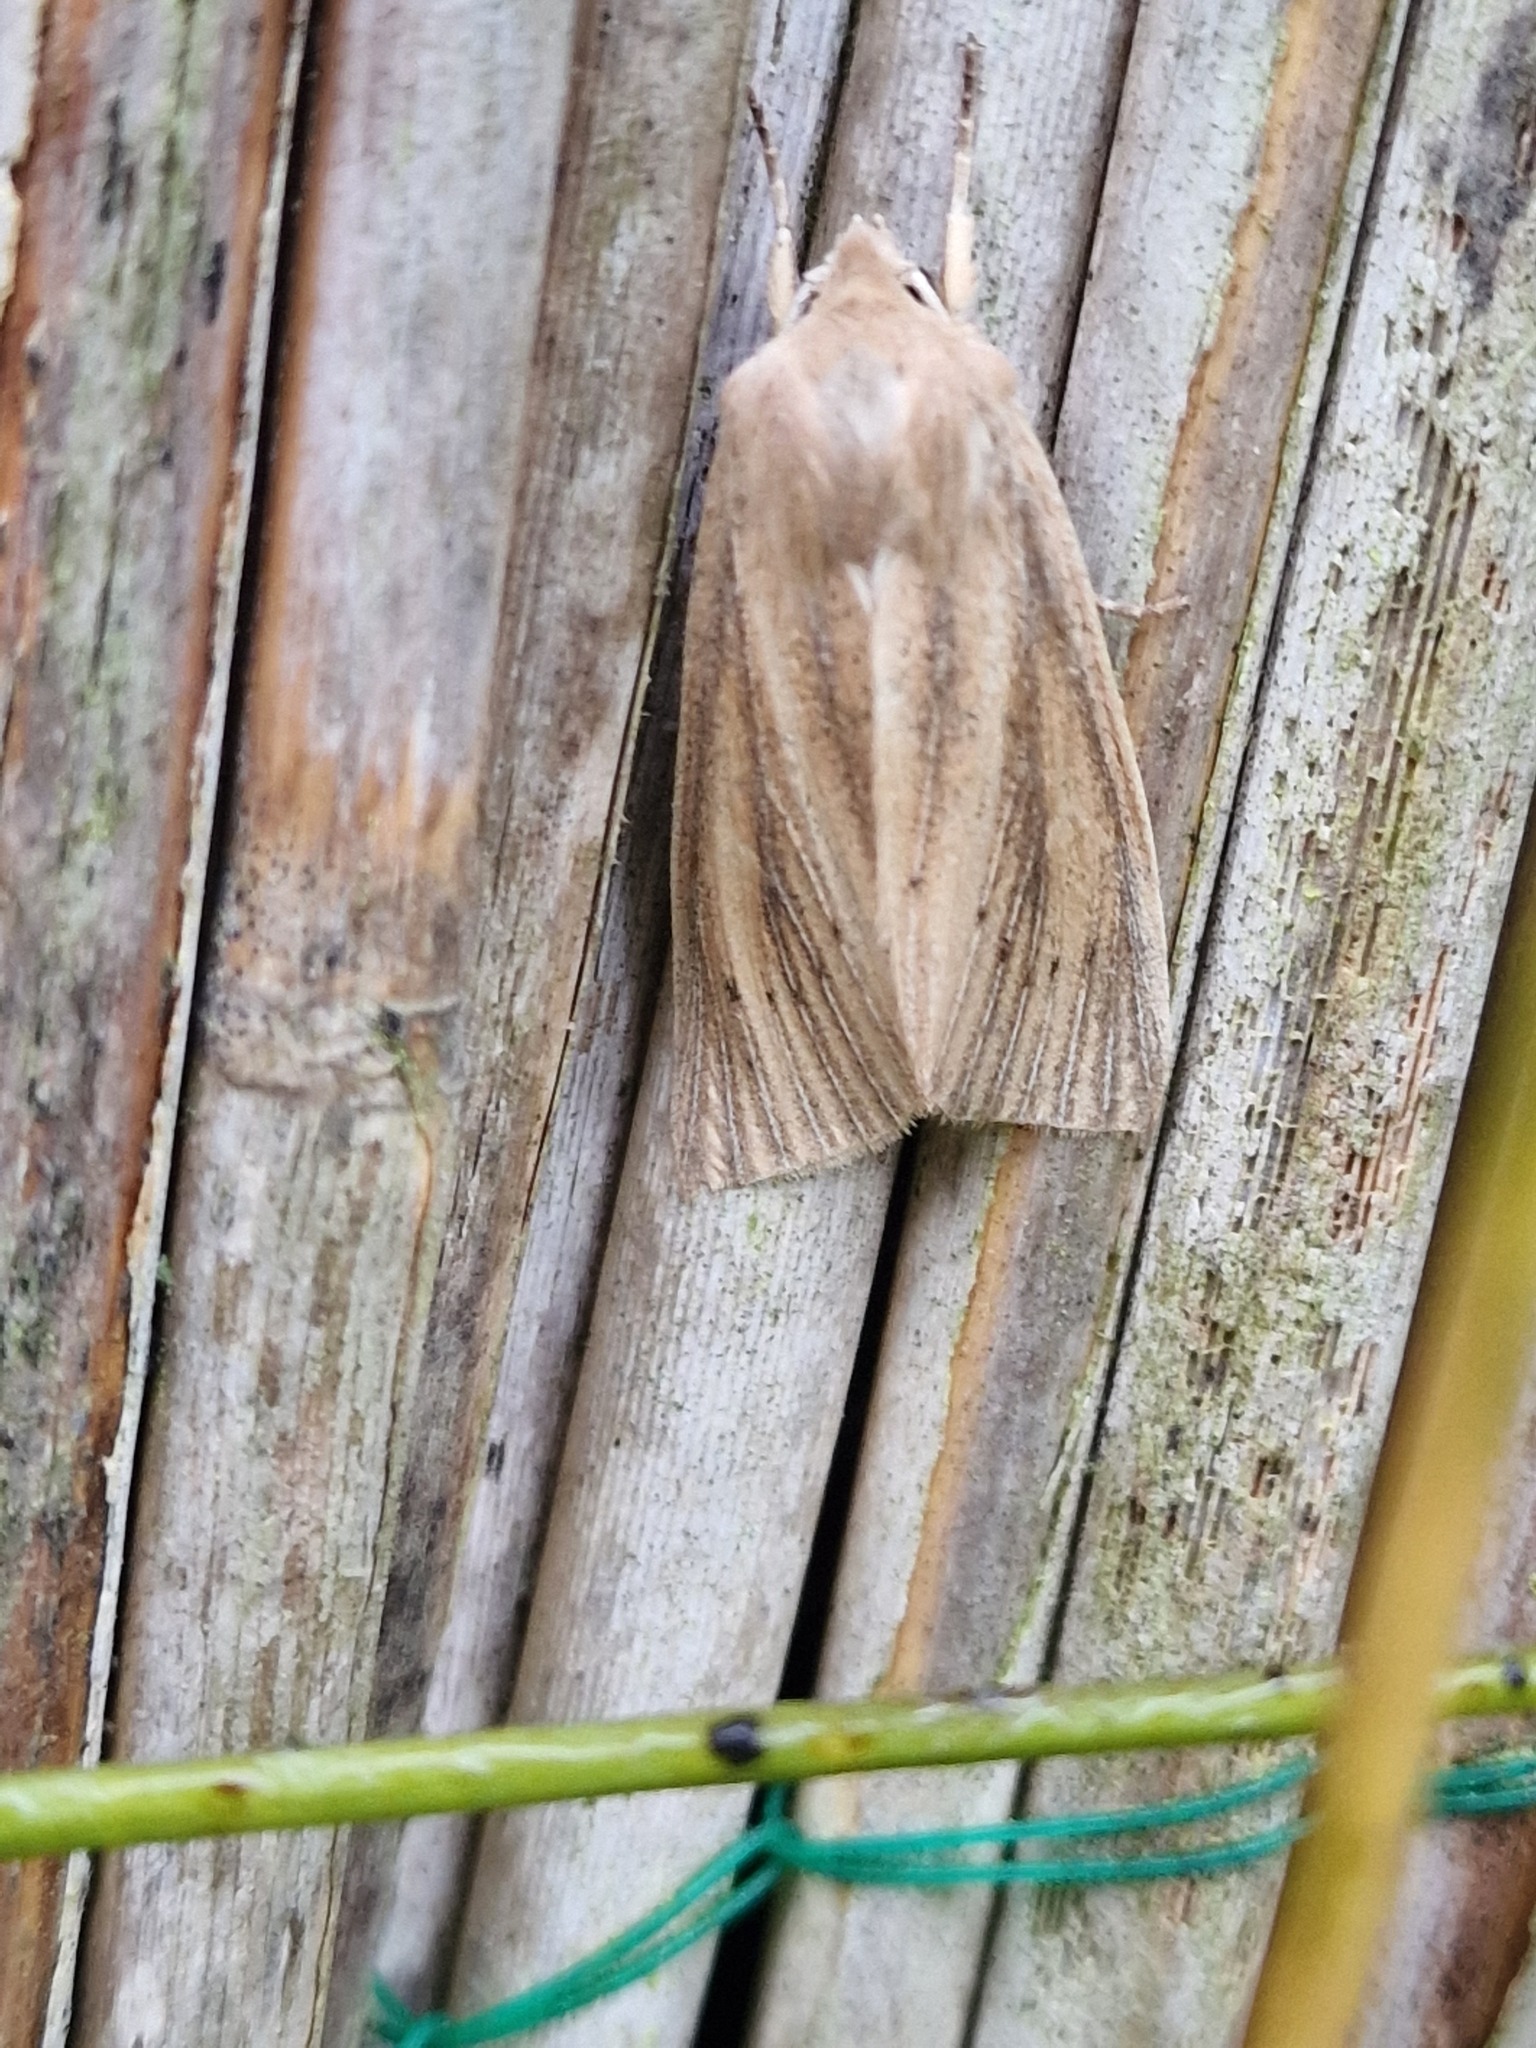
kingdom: Animalia
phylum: Arthropoda
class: Insecta
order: Lepidoptera
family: Noctuidae
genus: Rhizedra
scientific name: Rhizedra lutosa
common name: Large wainscot
